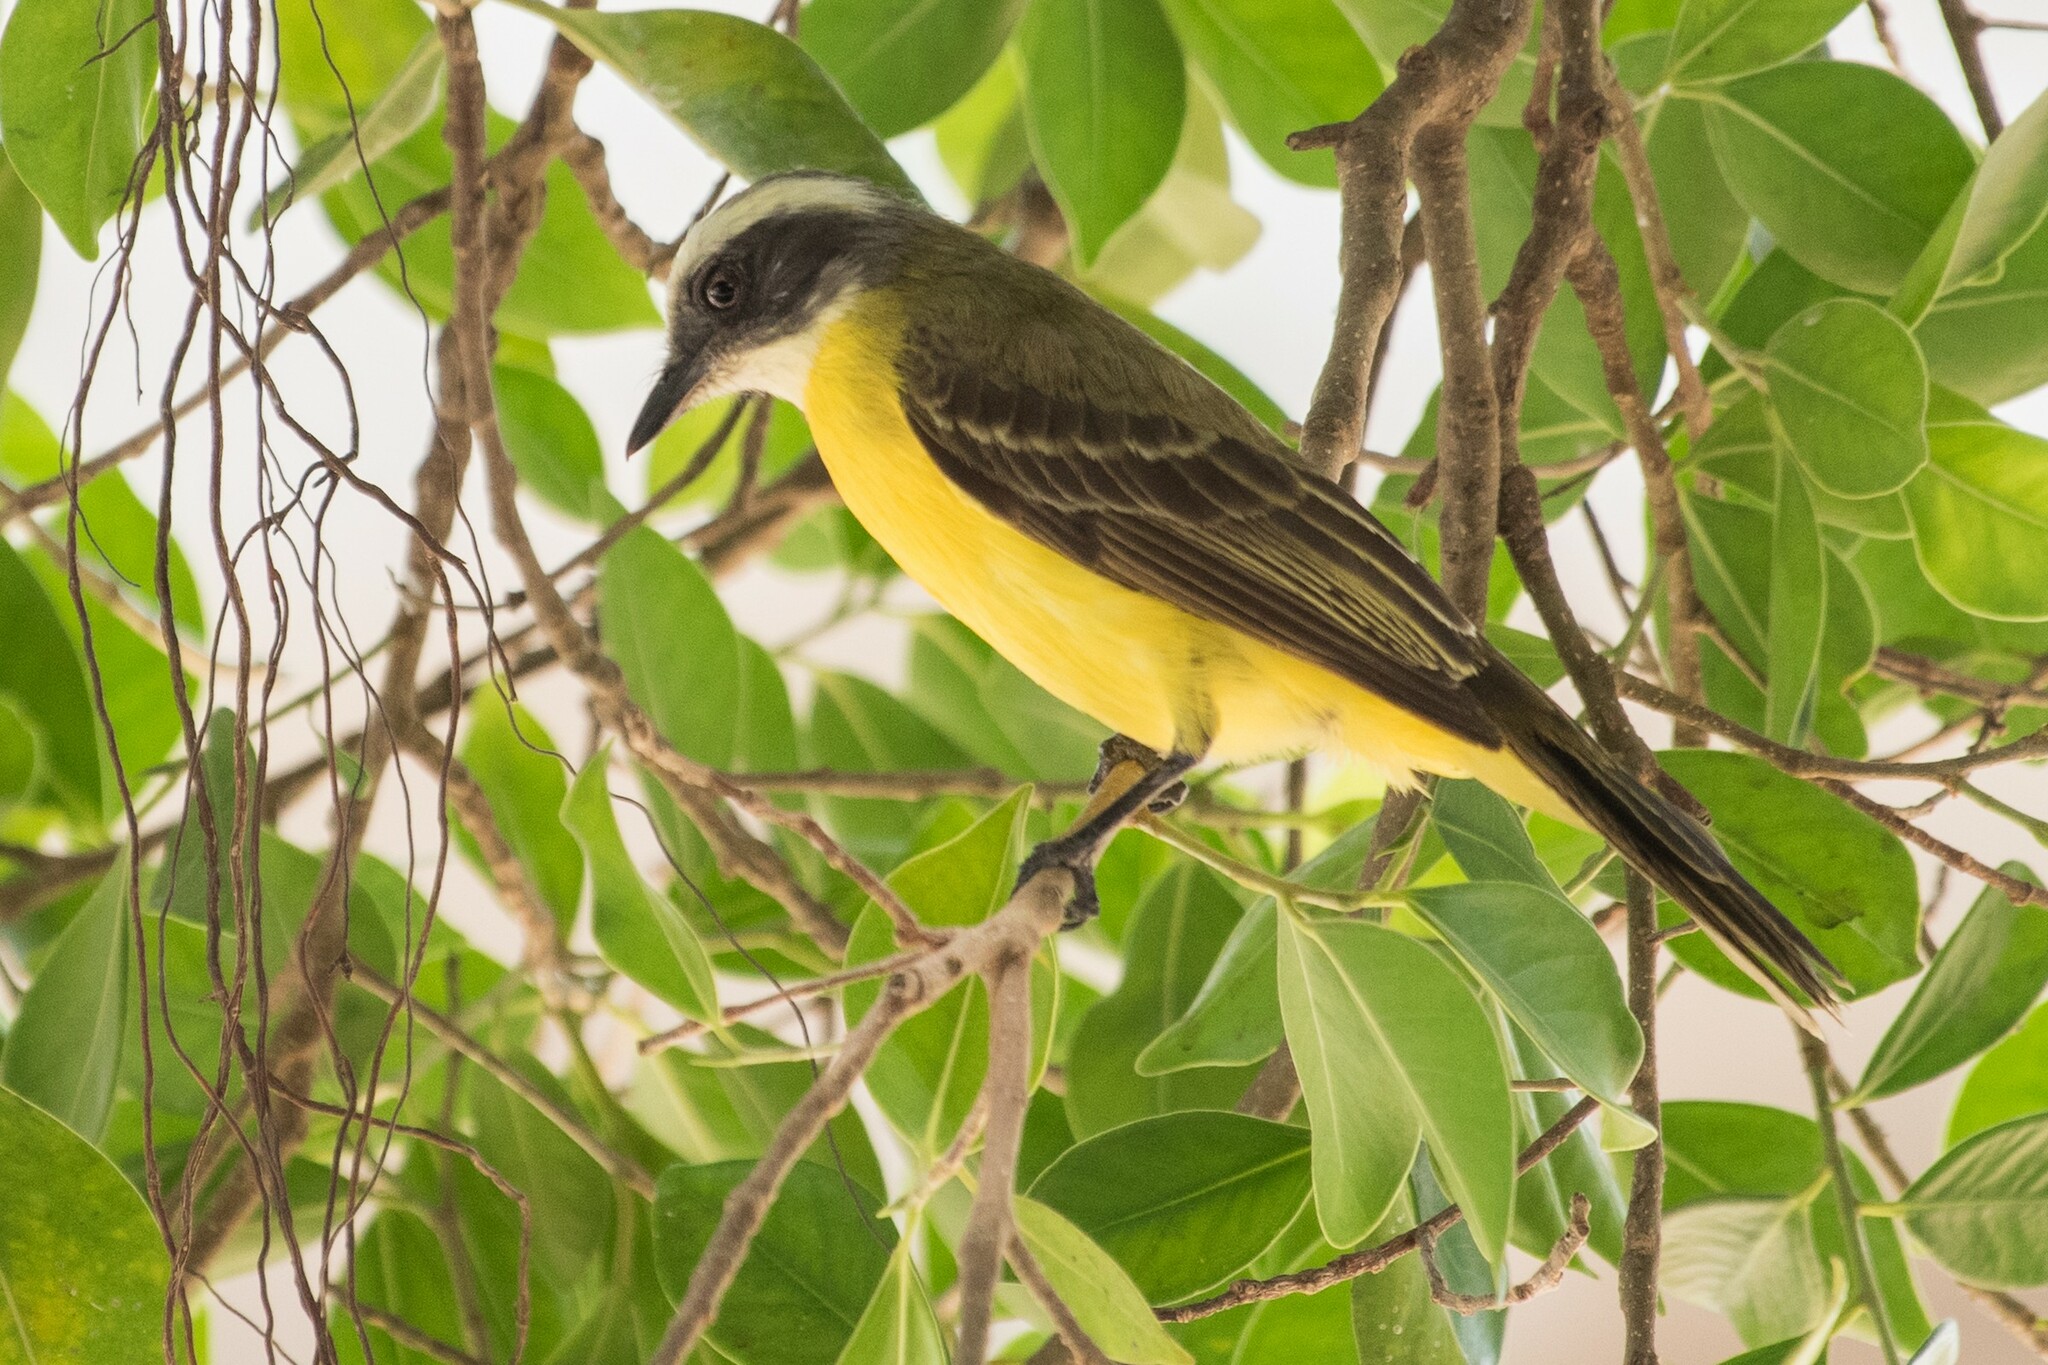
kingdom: Animalia
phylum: Chordata
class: Aves
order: Passeriformes
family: Tyrannidae
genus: Myiozetetes
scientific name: Myiozetetes similis
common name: Social flycatcher
